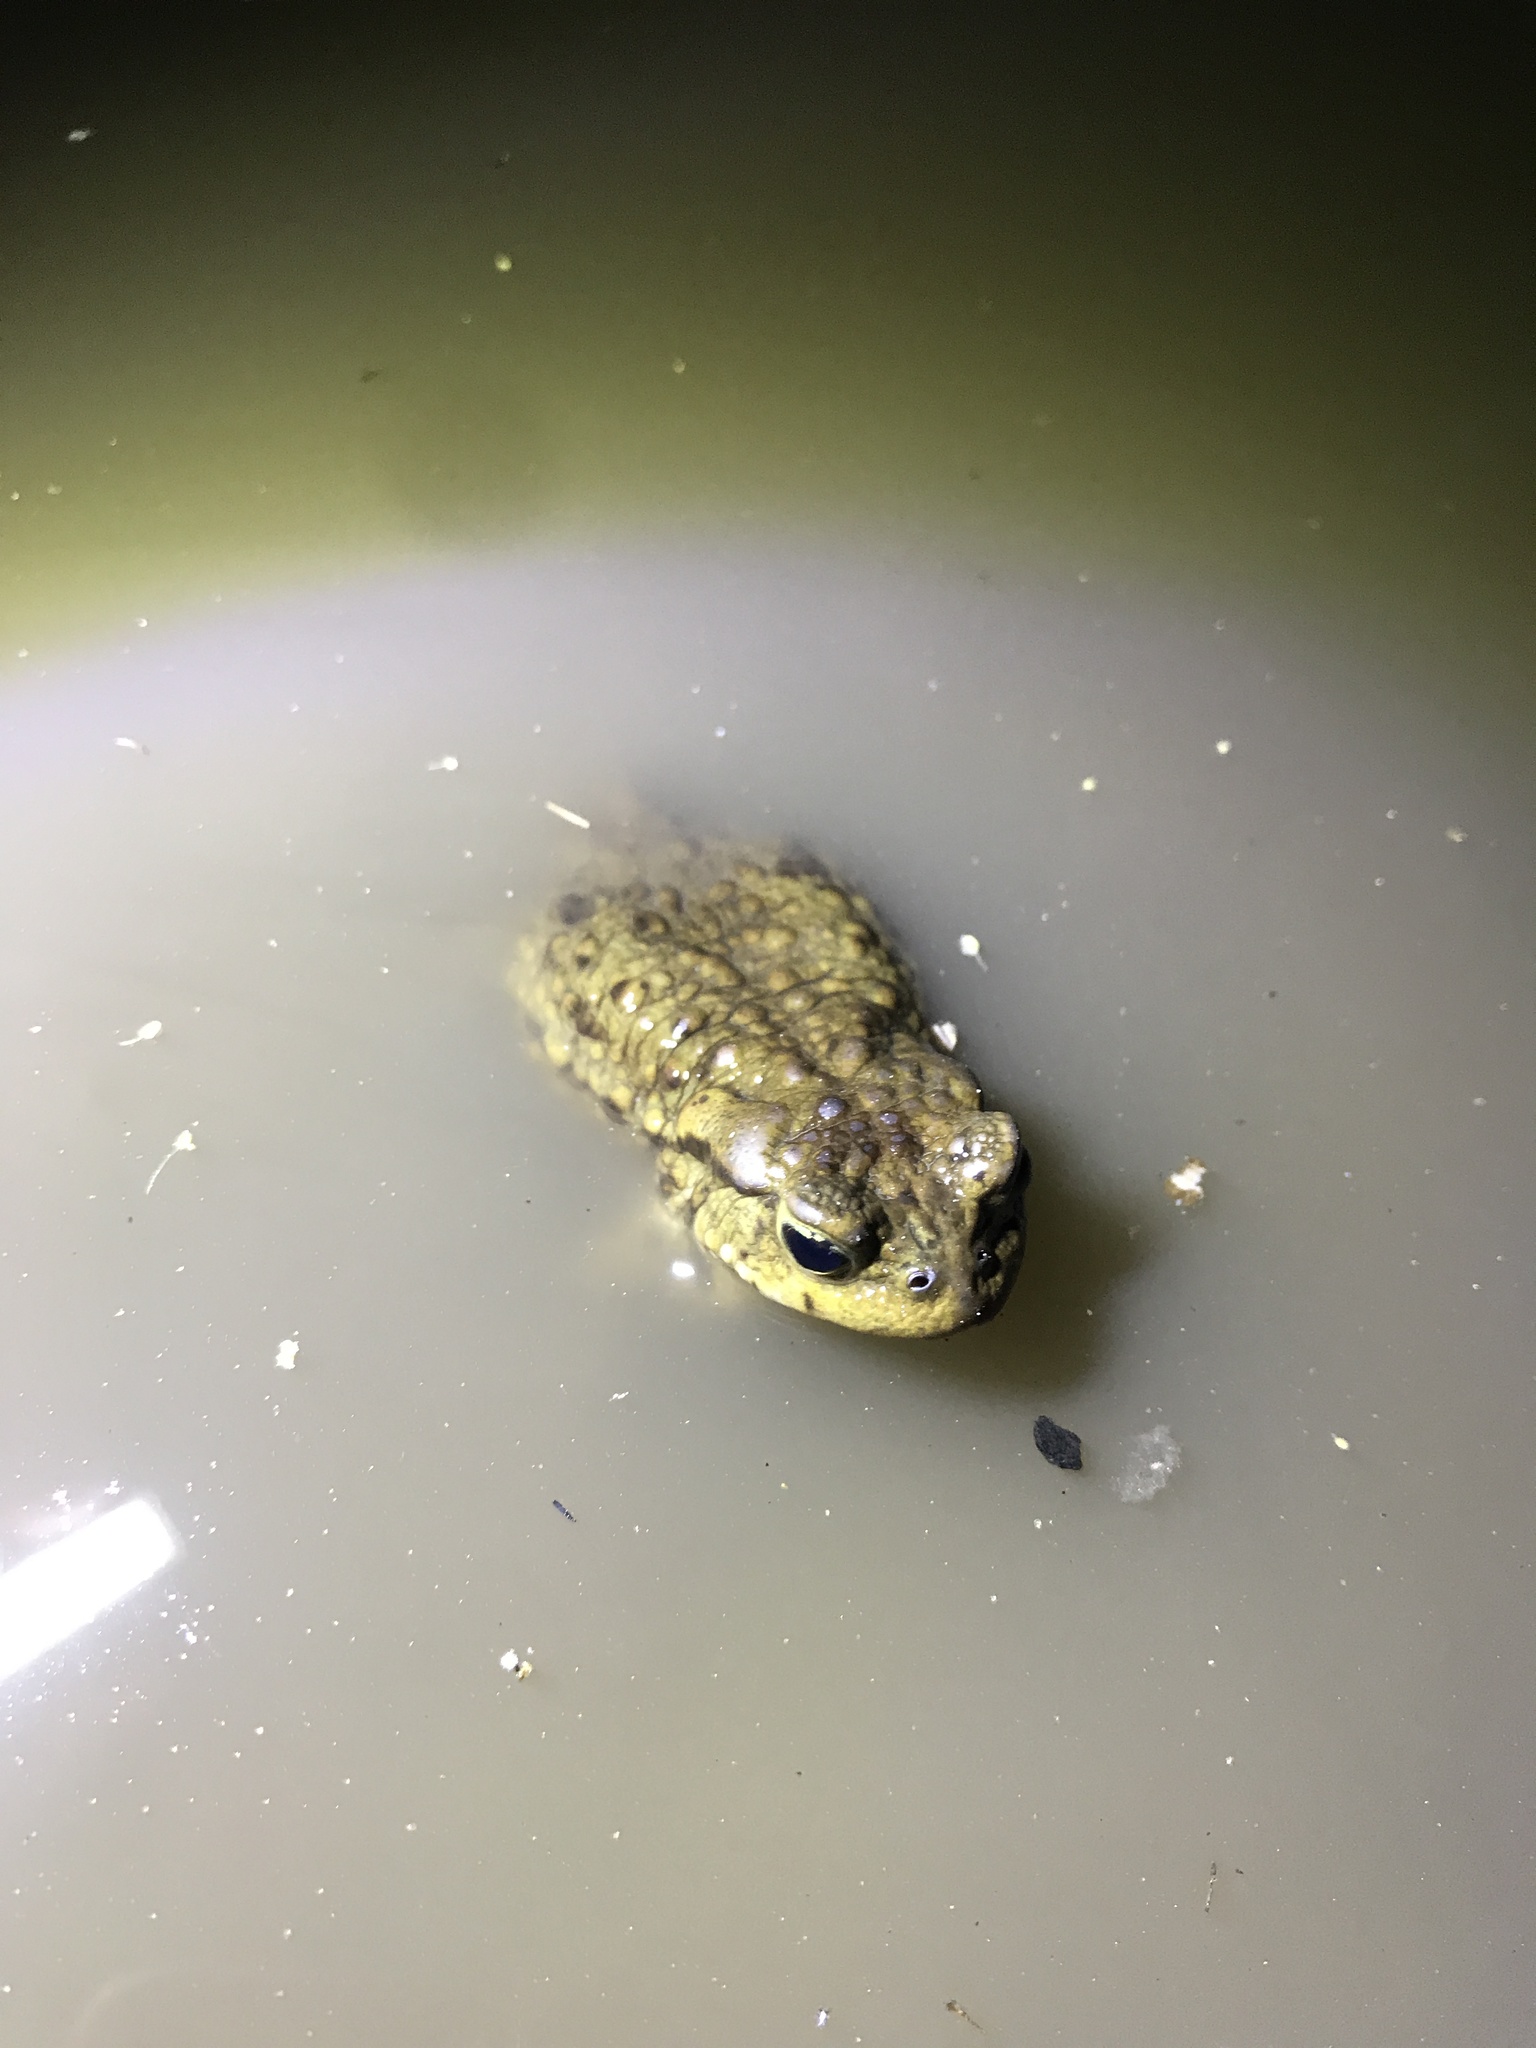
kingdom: Animalia
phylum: Chordata
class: Amphibia
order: Anura
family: Bufonidae
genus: Bufo
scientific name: Bufo bufo
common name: Common toad
